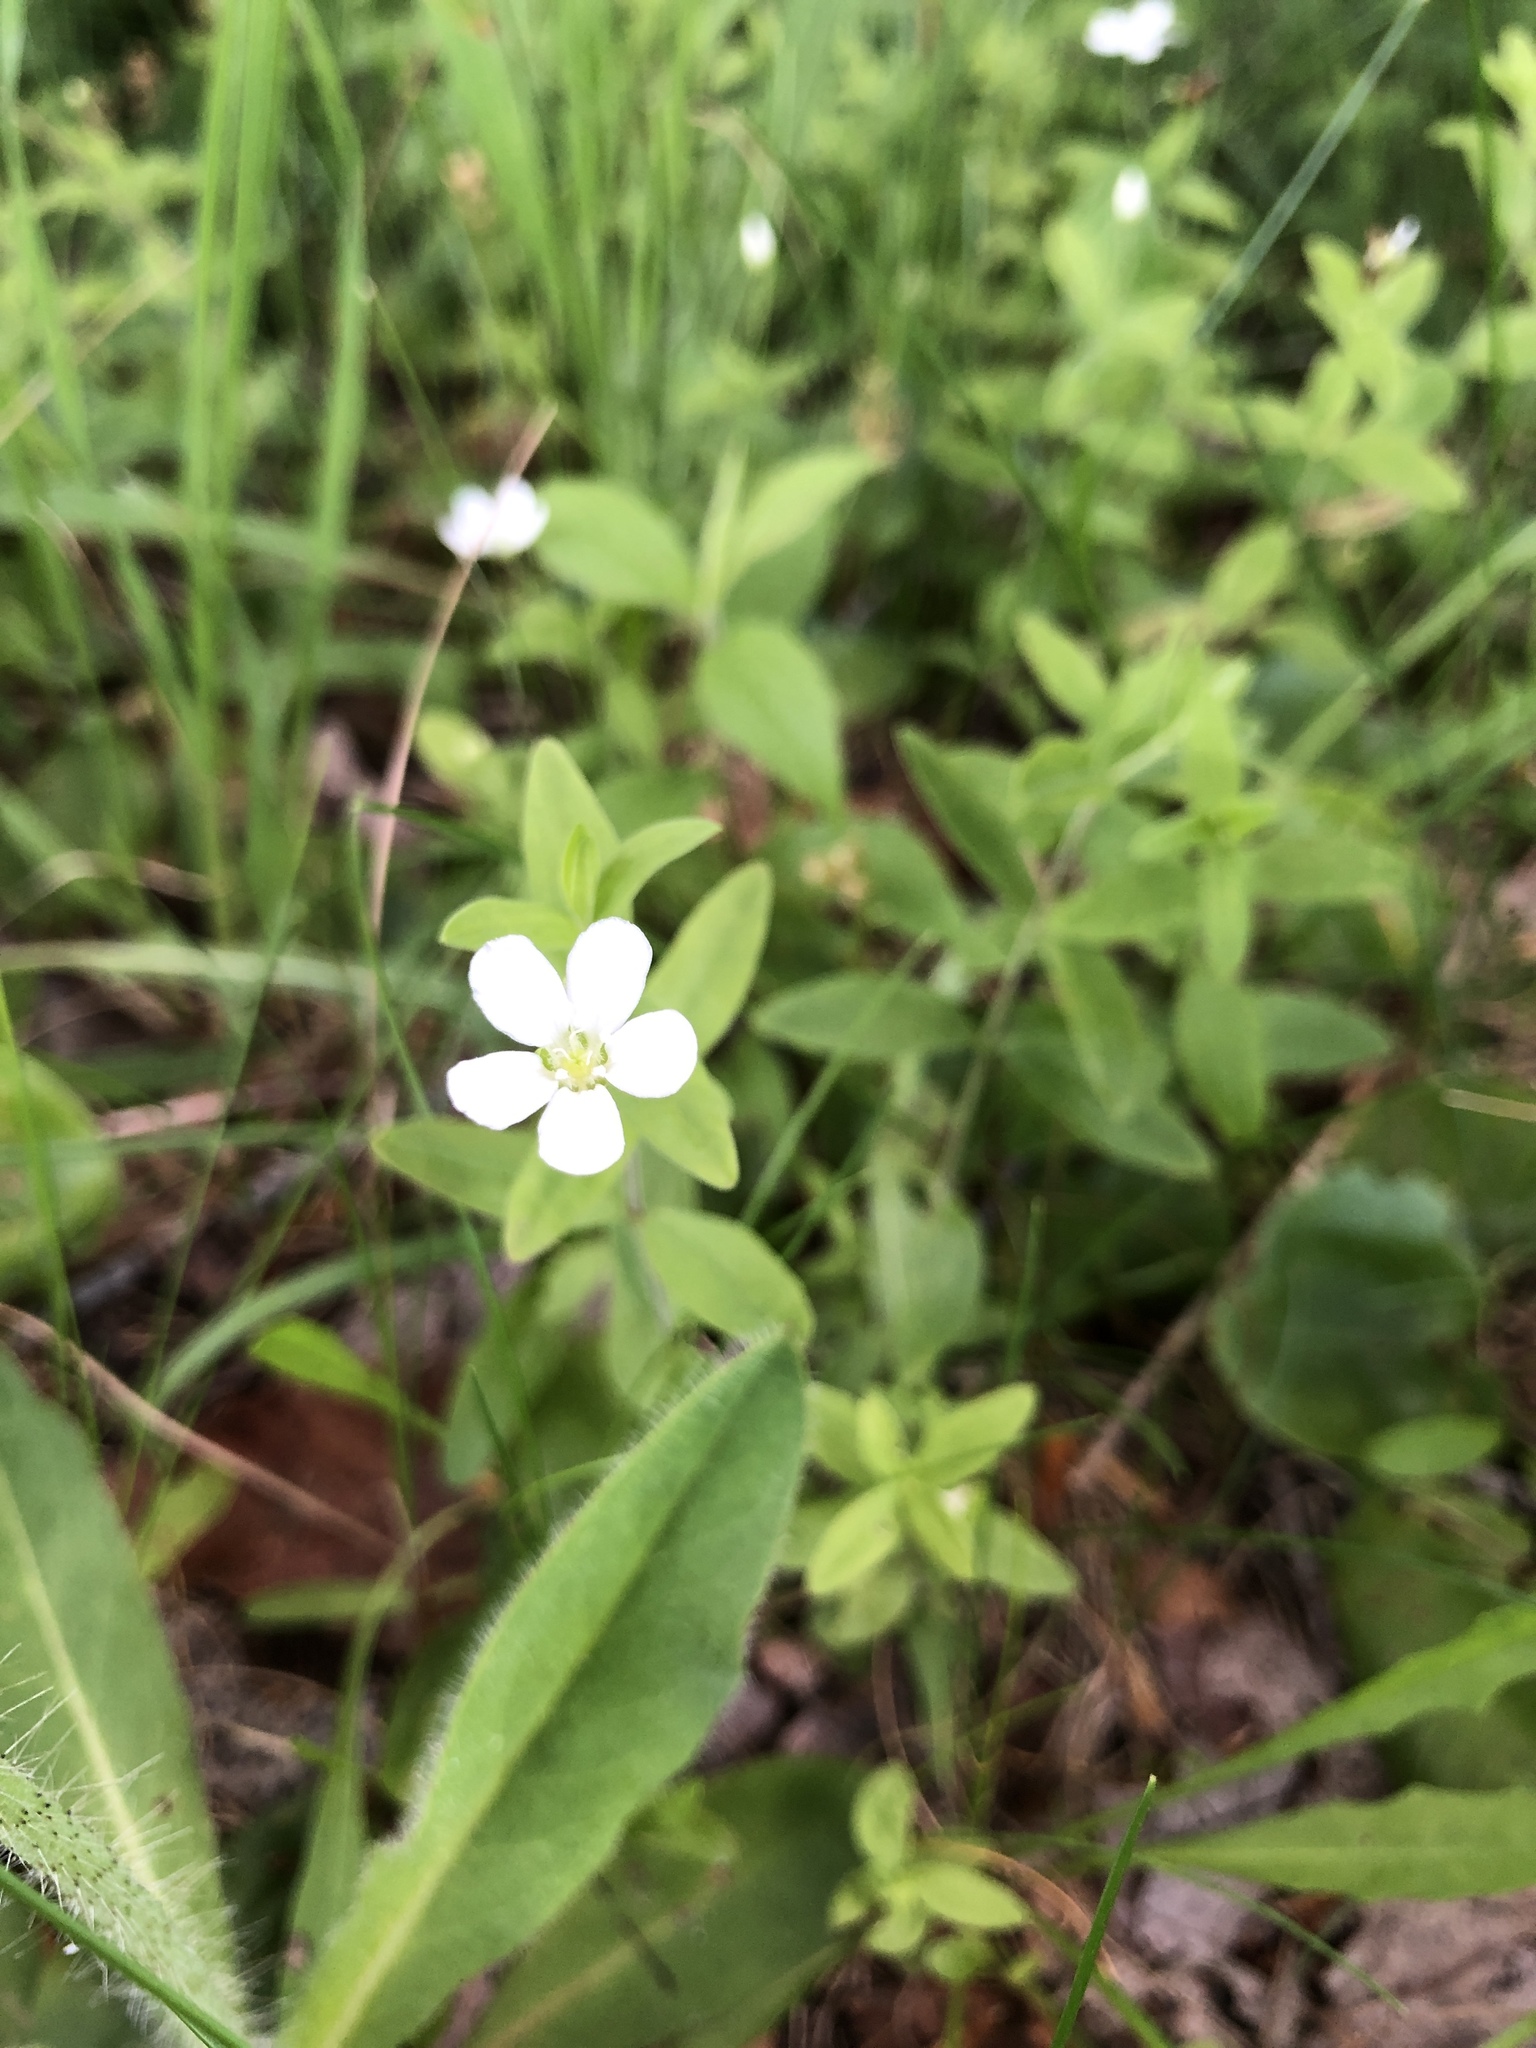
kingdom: Plantae
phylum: Tracheophyta
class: Magnoliopsida
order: Caryophyllales
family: Caryophyllaceae
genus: Moehringia
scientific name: Moehringia lateriflora
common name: Blunt-leaved sandwort
